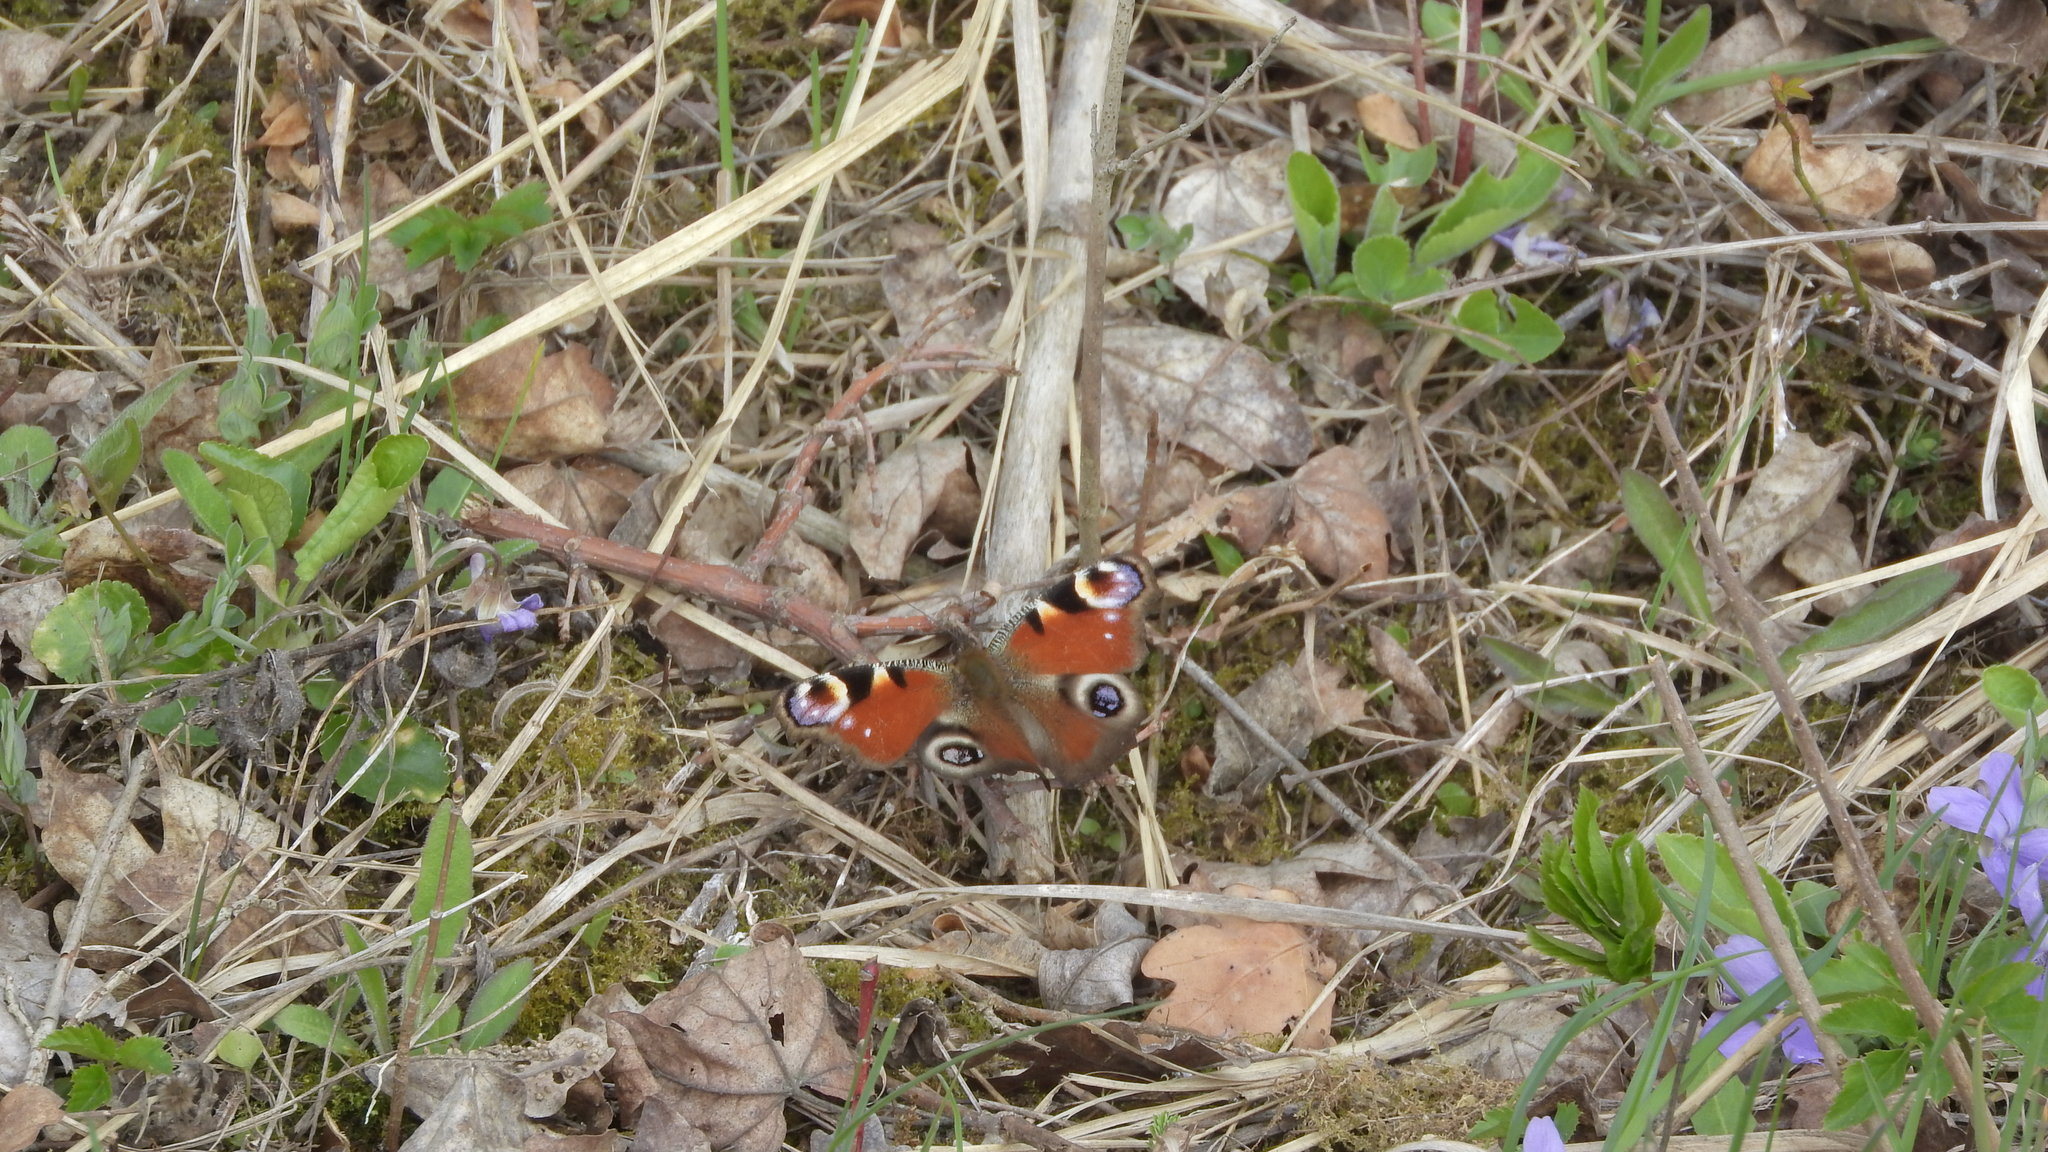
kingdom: Animalia
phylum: Arthropoda
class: Insecta
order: Lepidoptera
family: Nymphalidae
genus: Aglais
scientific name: Aglais io
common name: Peacock
